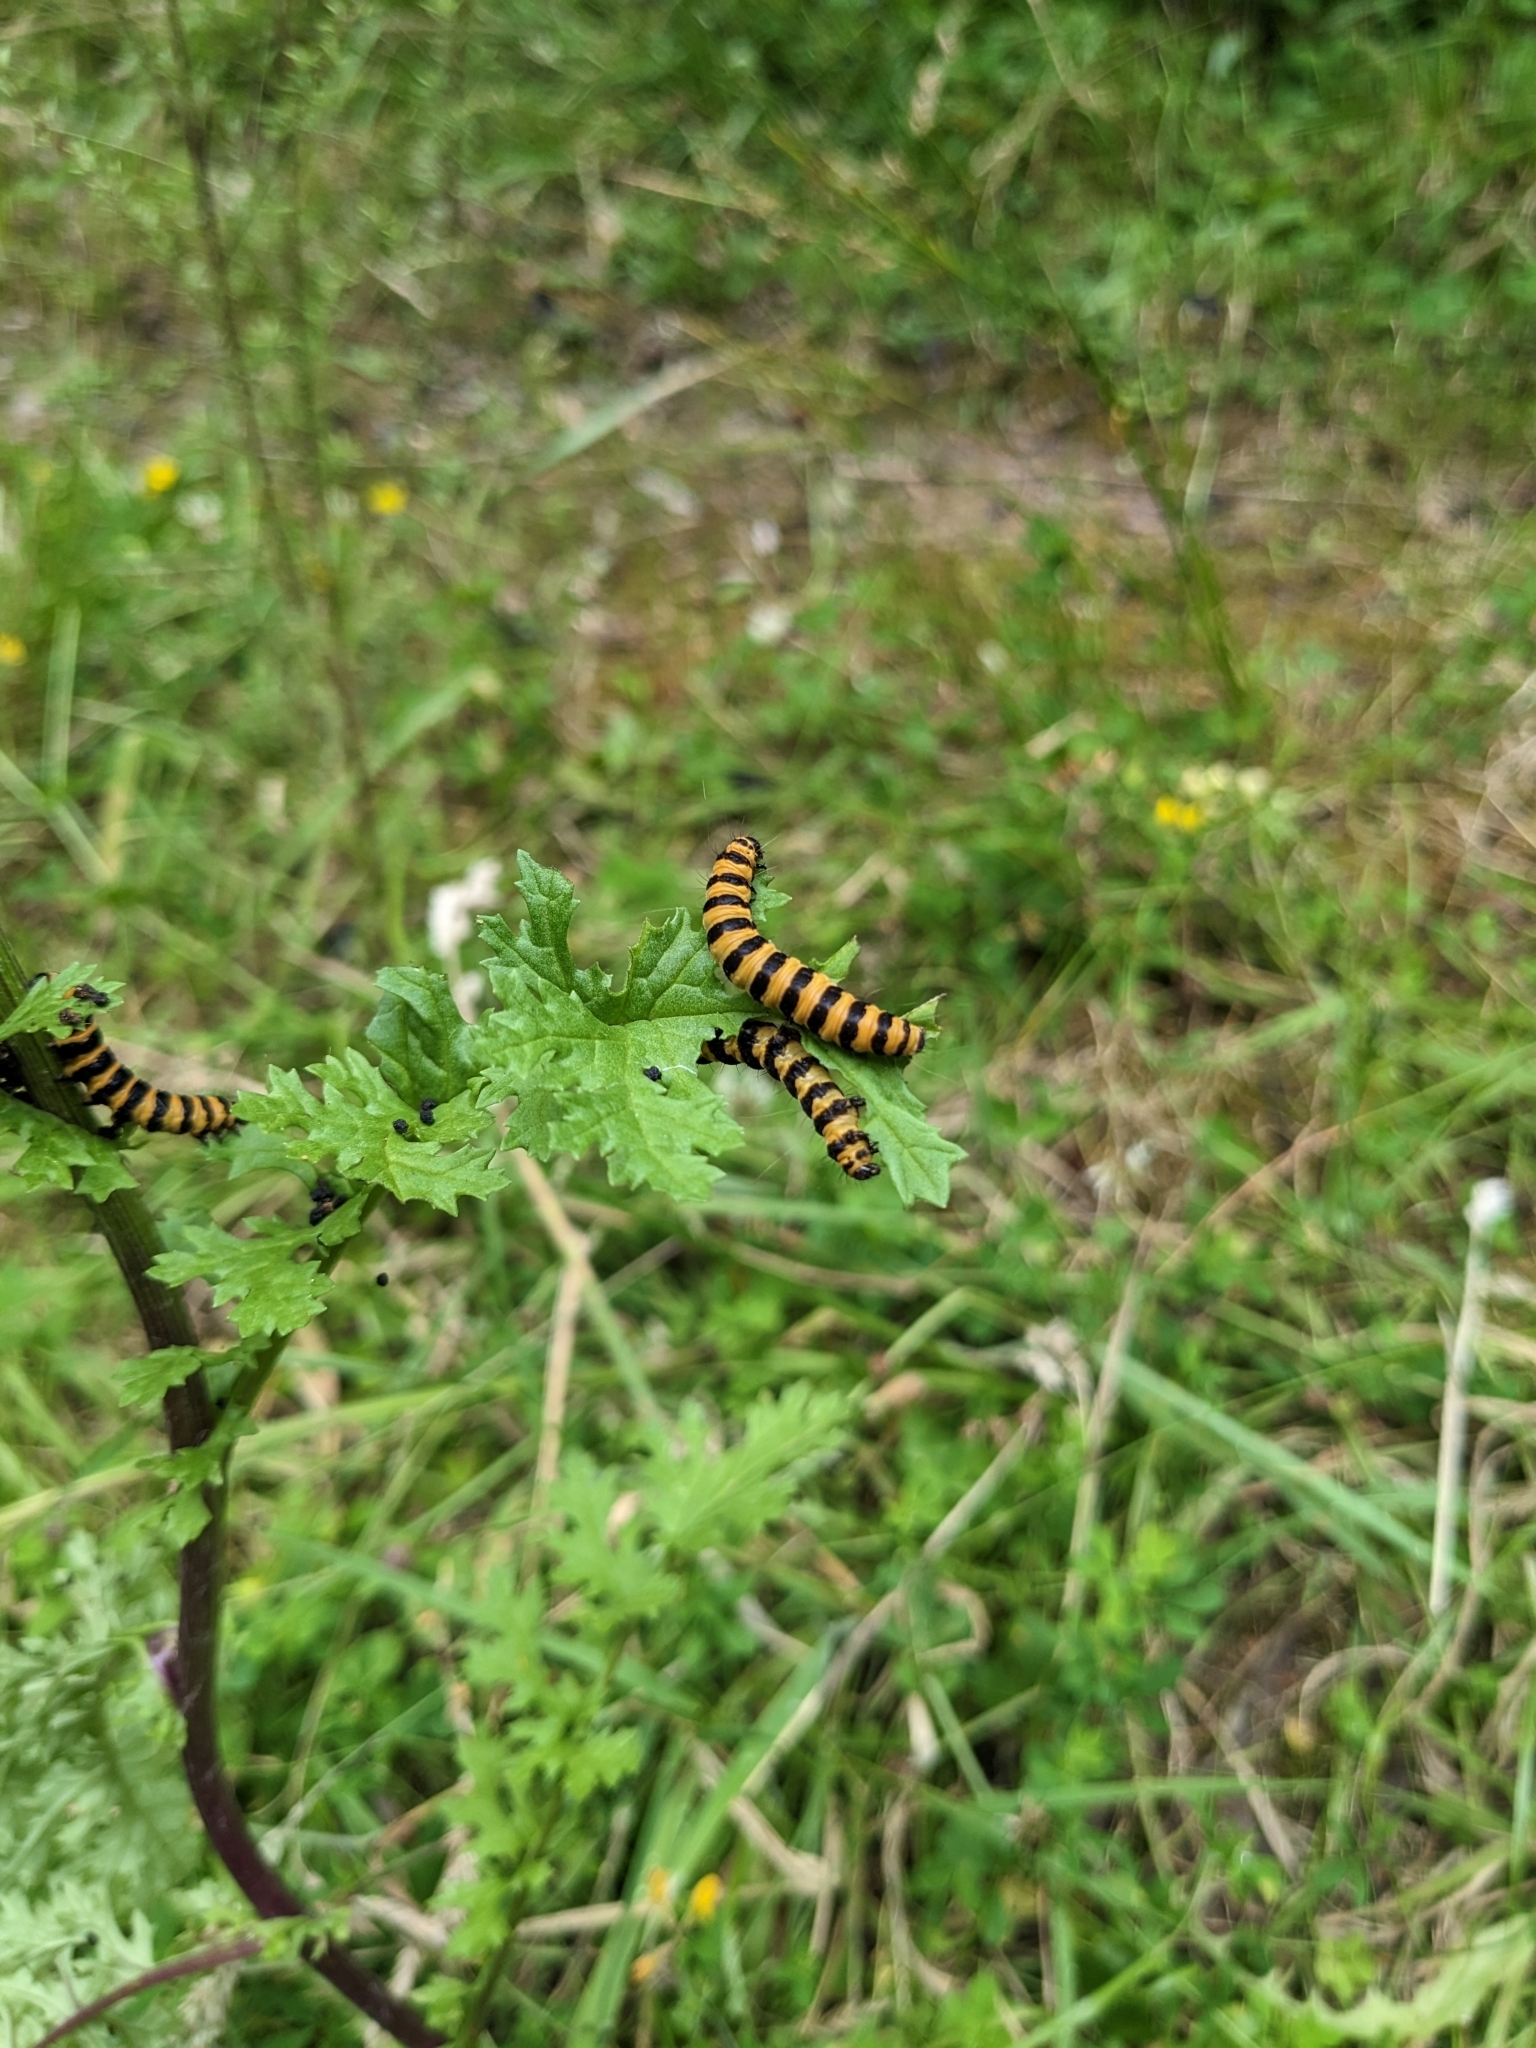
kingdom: Animalia
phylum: Arthropoda
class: Insecta
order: Lepidoptera
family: Erebidae
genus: Tyria
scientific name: Tyria jacobaeae
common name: Cinnabar
